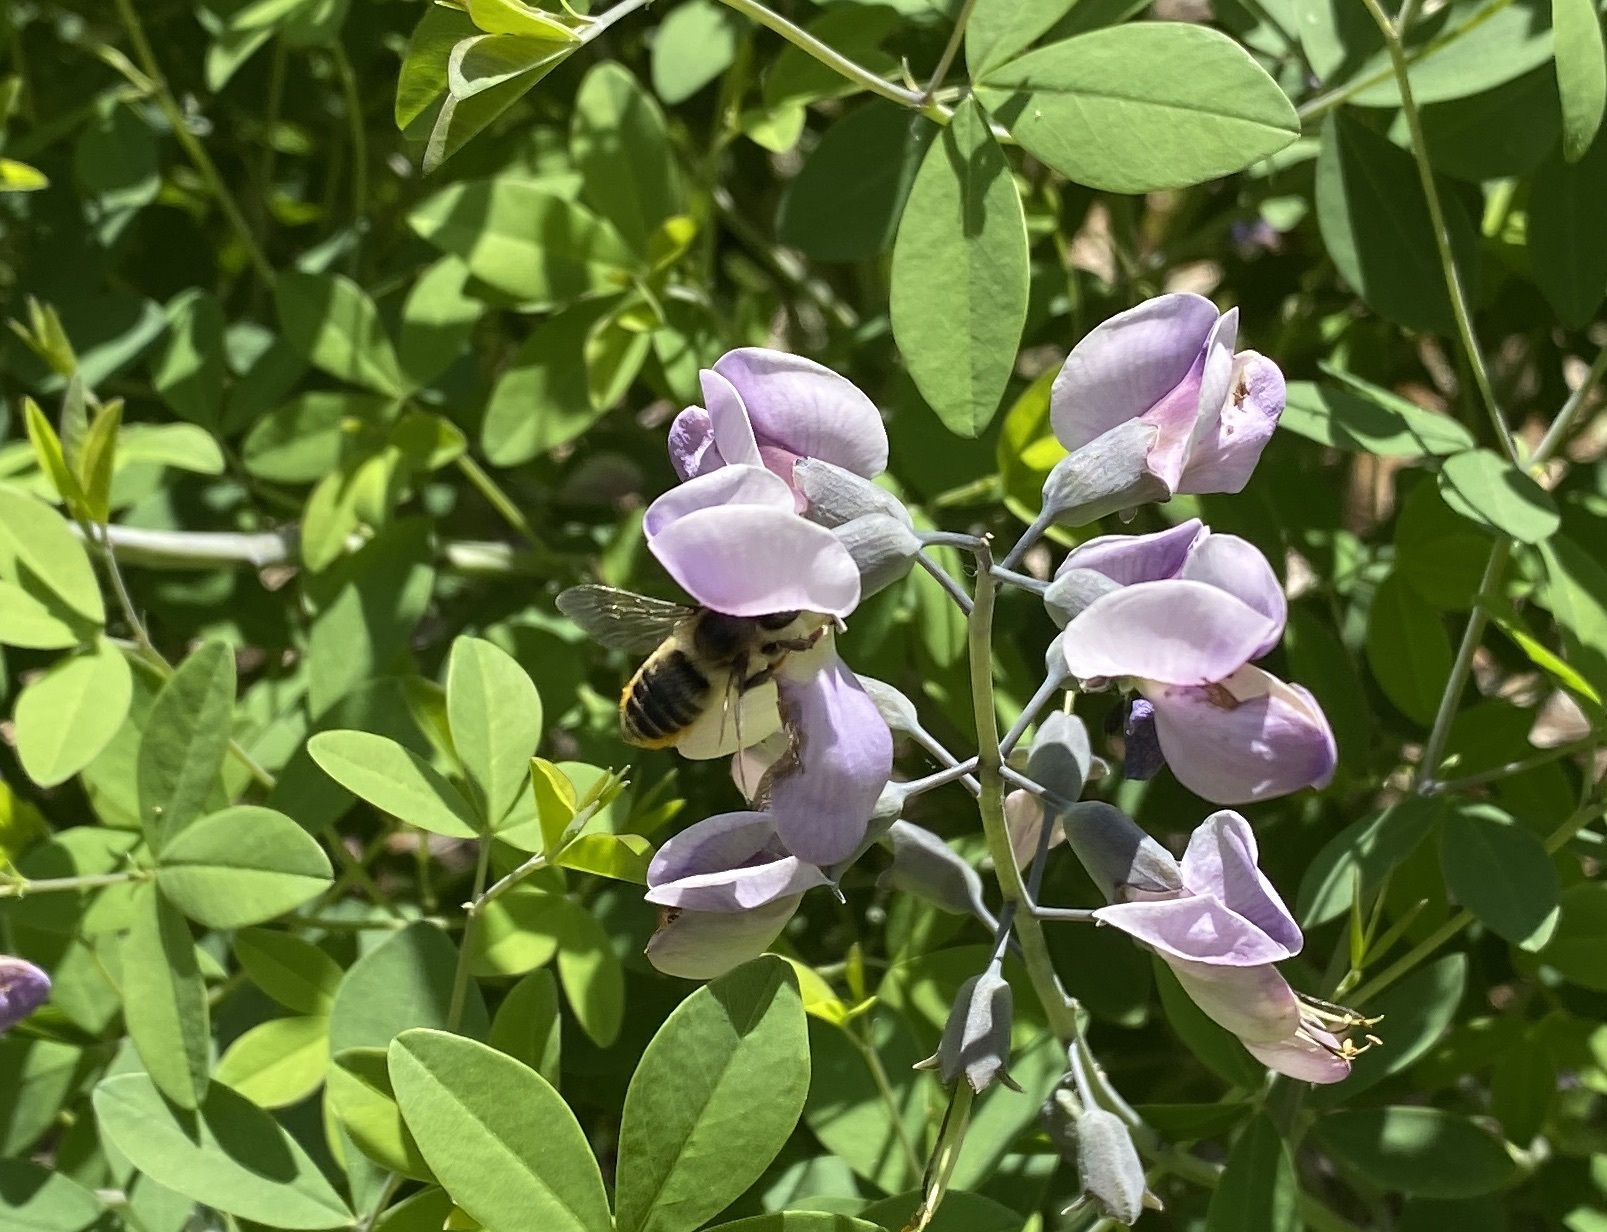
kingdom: Animalia
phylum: Arthropoda
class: Insecta
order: Hymenoptera
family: Megachilidae
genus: Megachile
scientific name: Megachile latimanus
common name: Leafcutting bee
